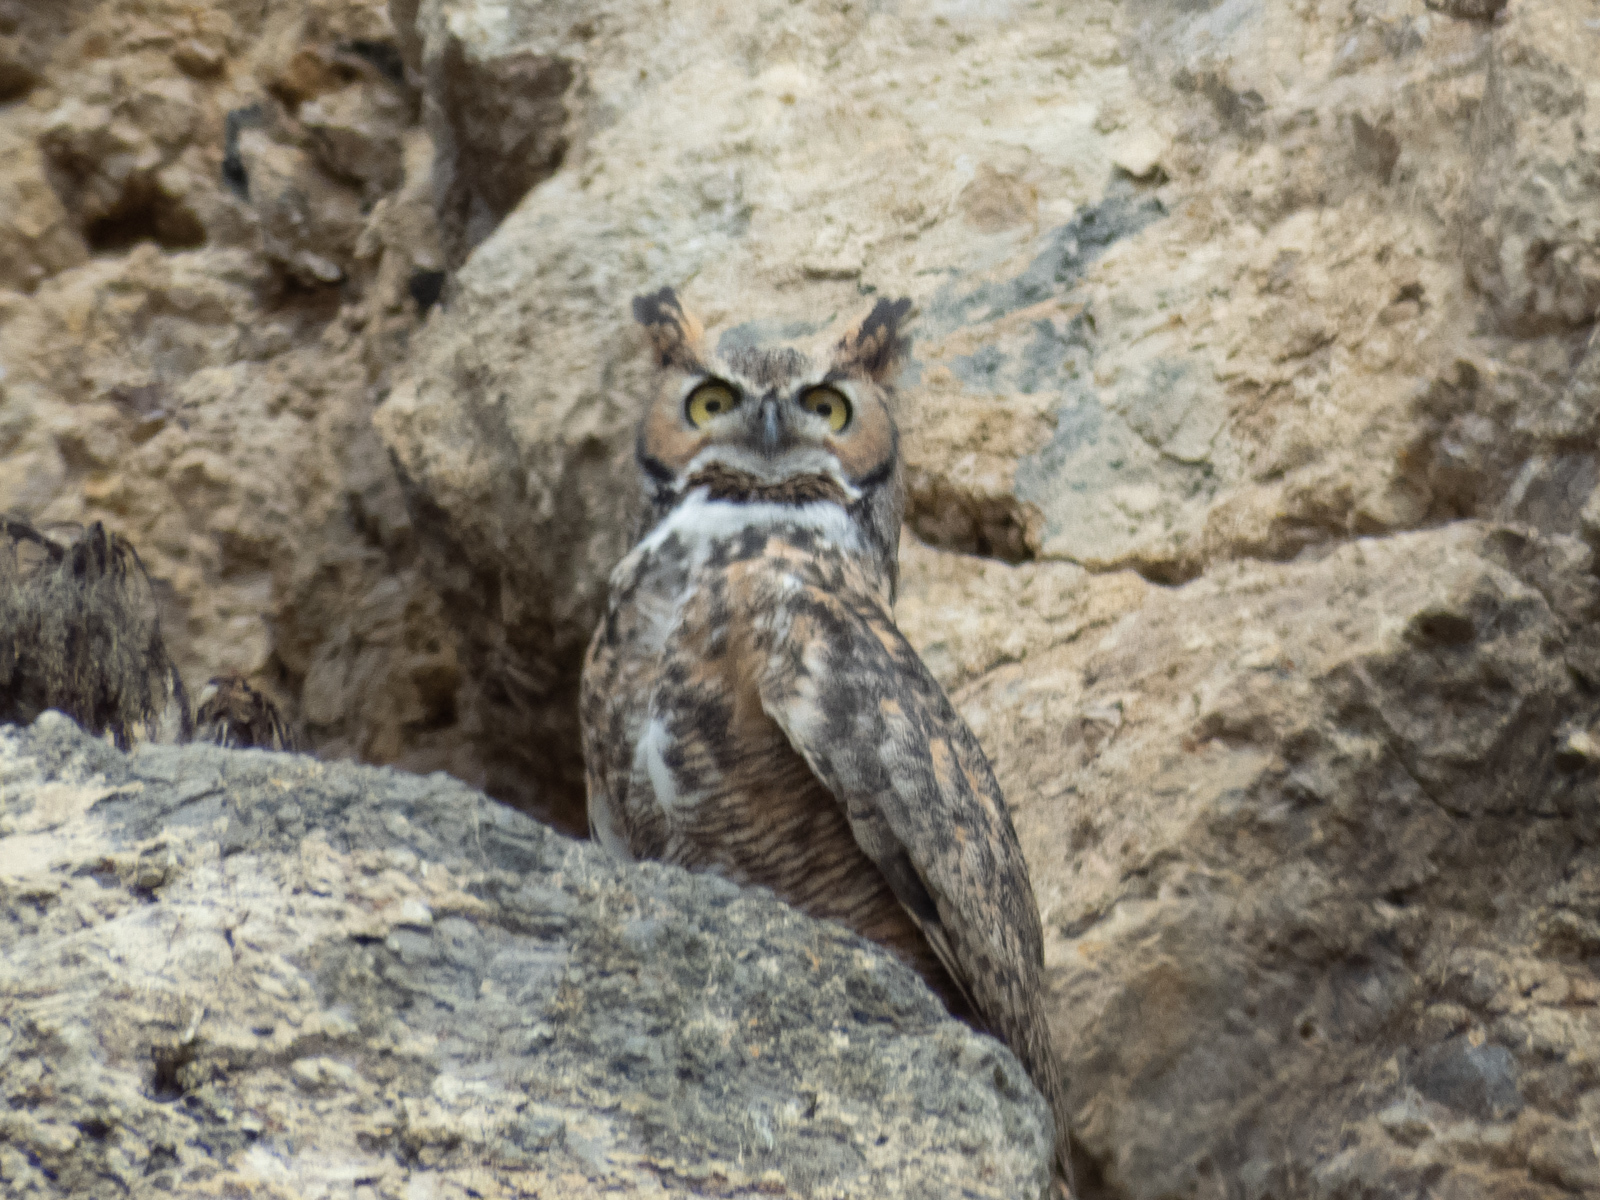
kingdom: Animalia
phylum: Chordata
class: Aves
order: Strigiformes
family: Strigidae
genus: Bubo
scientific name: Bubo virginianus
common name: Great horned owl
